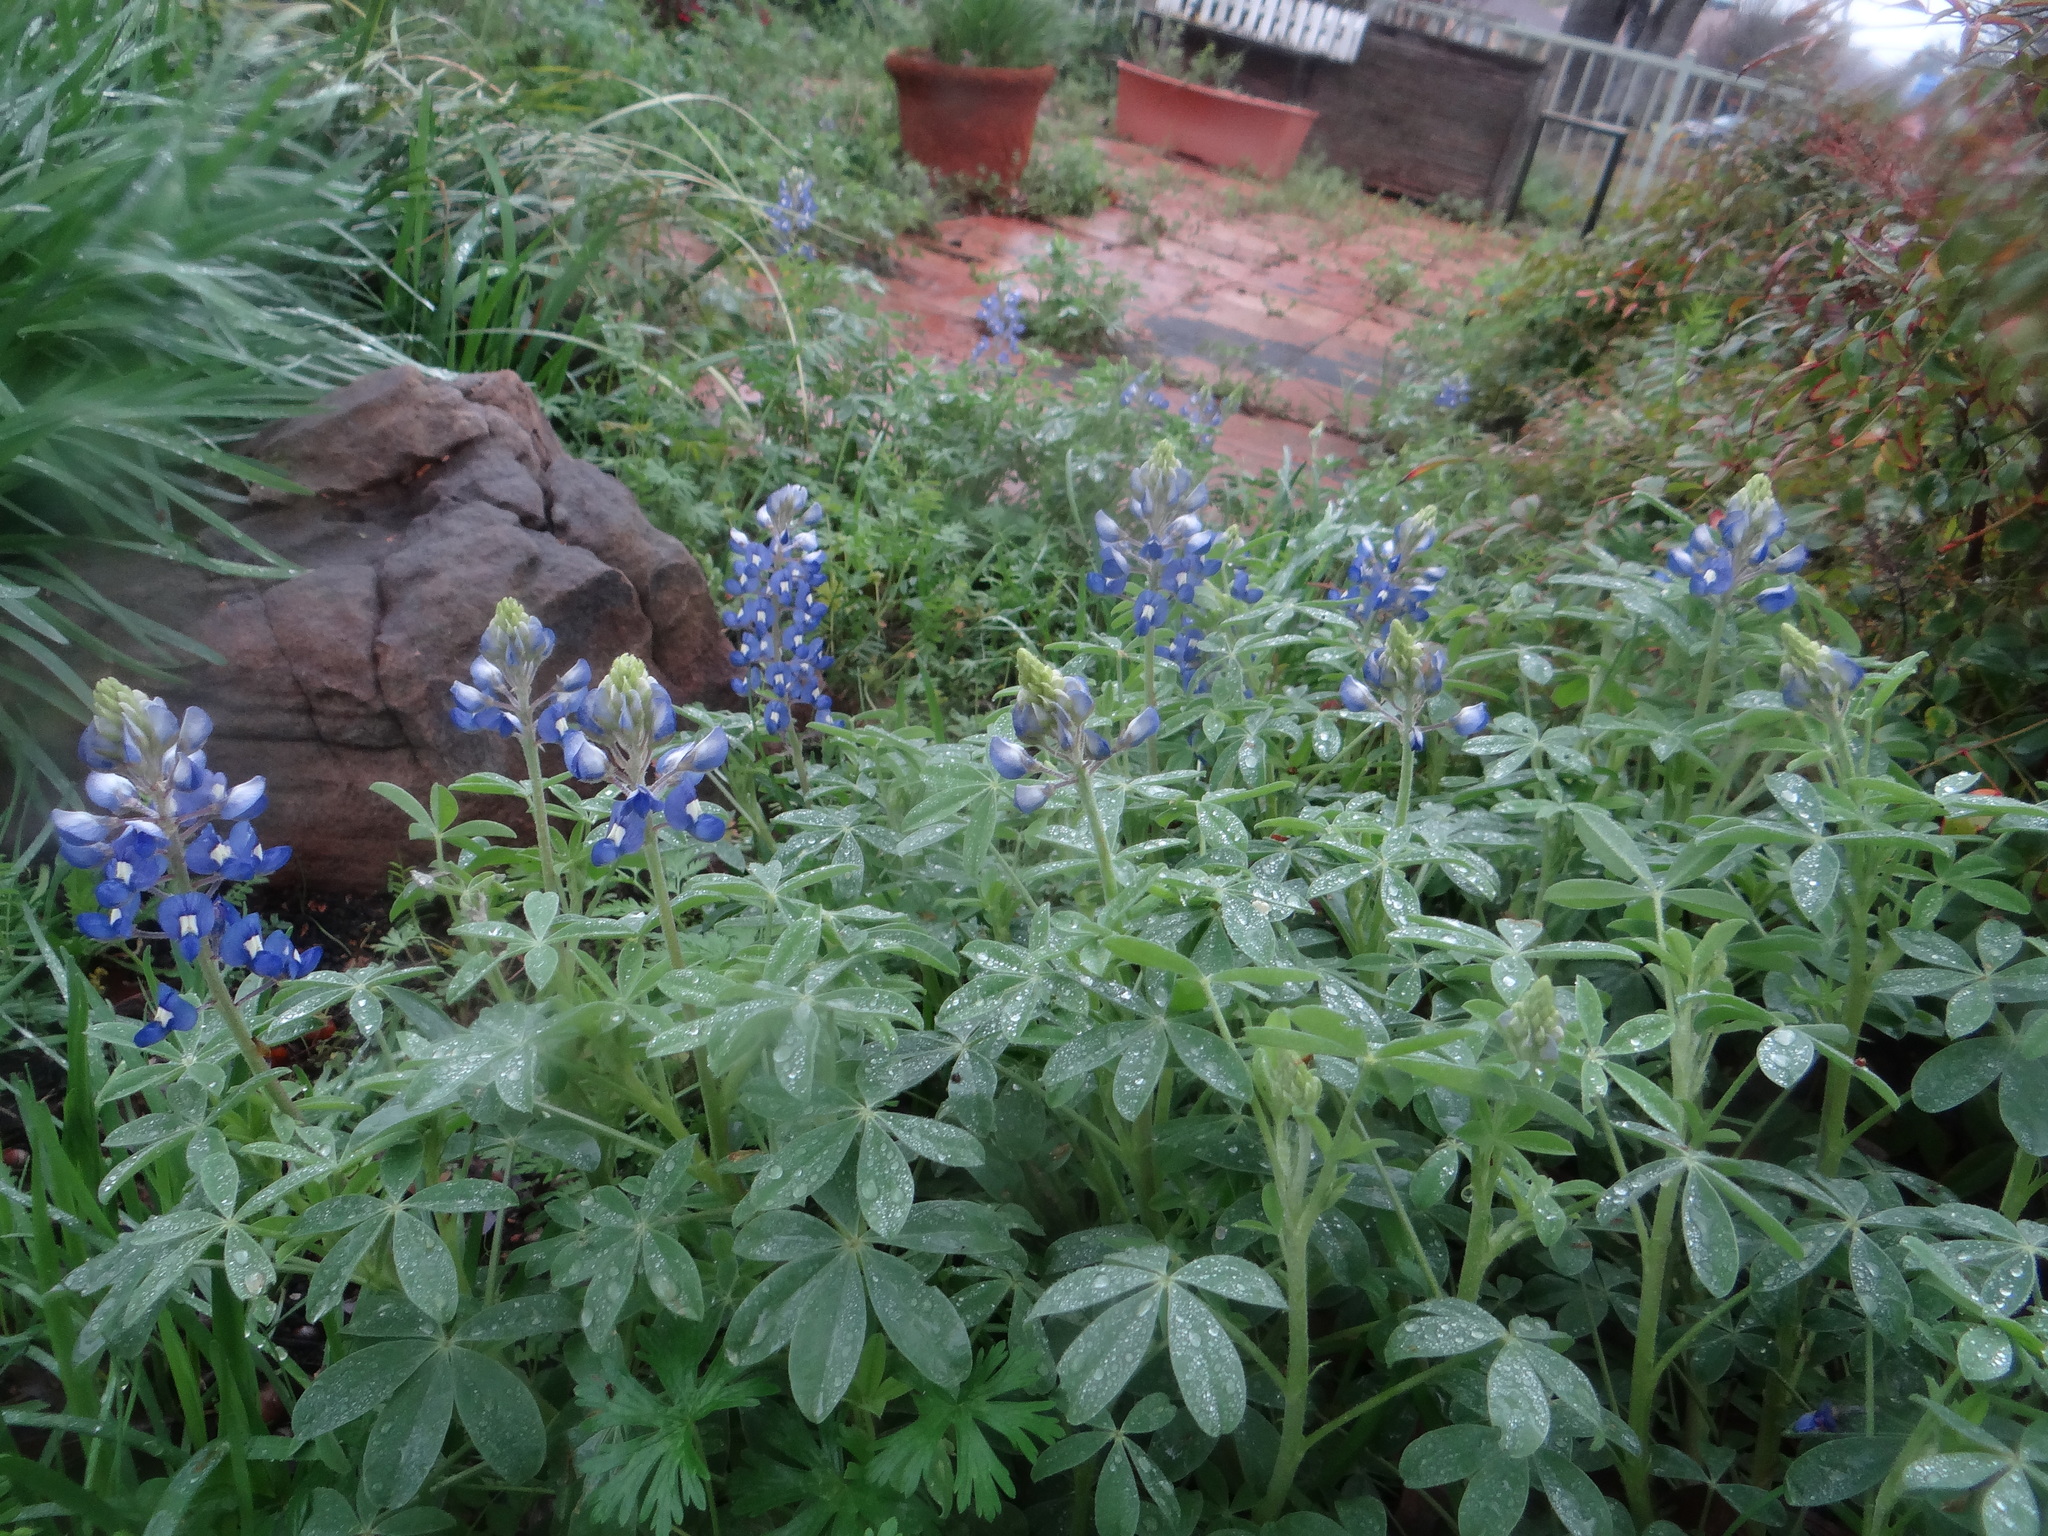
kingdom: Plantae
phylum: Tracheophyta
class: Magnoliopsida
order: Fabales
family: Fabaceae
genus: Lupinus
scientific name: Lupinus texensis
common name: Texas bluebonnet
